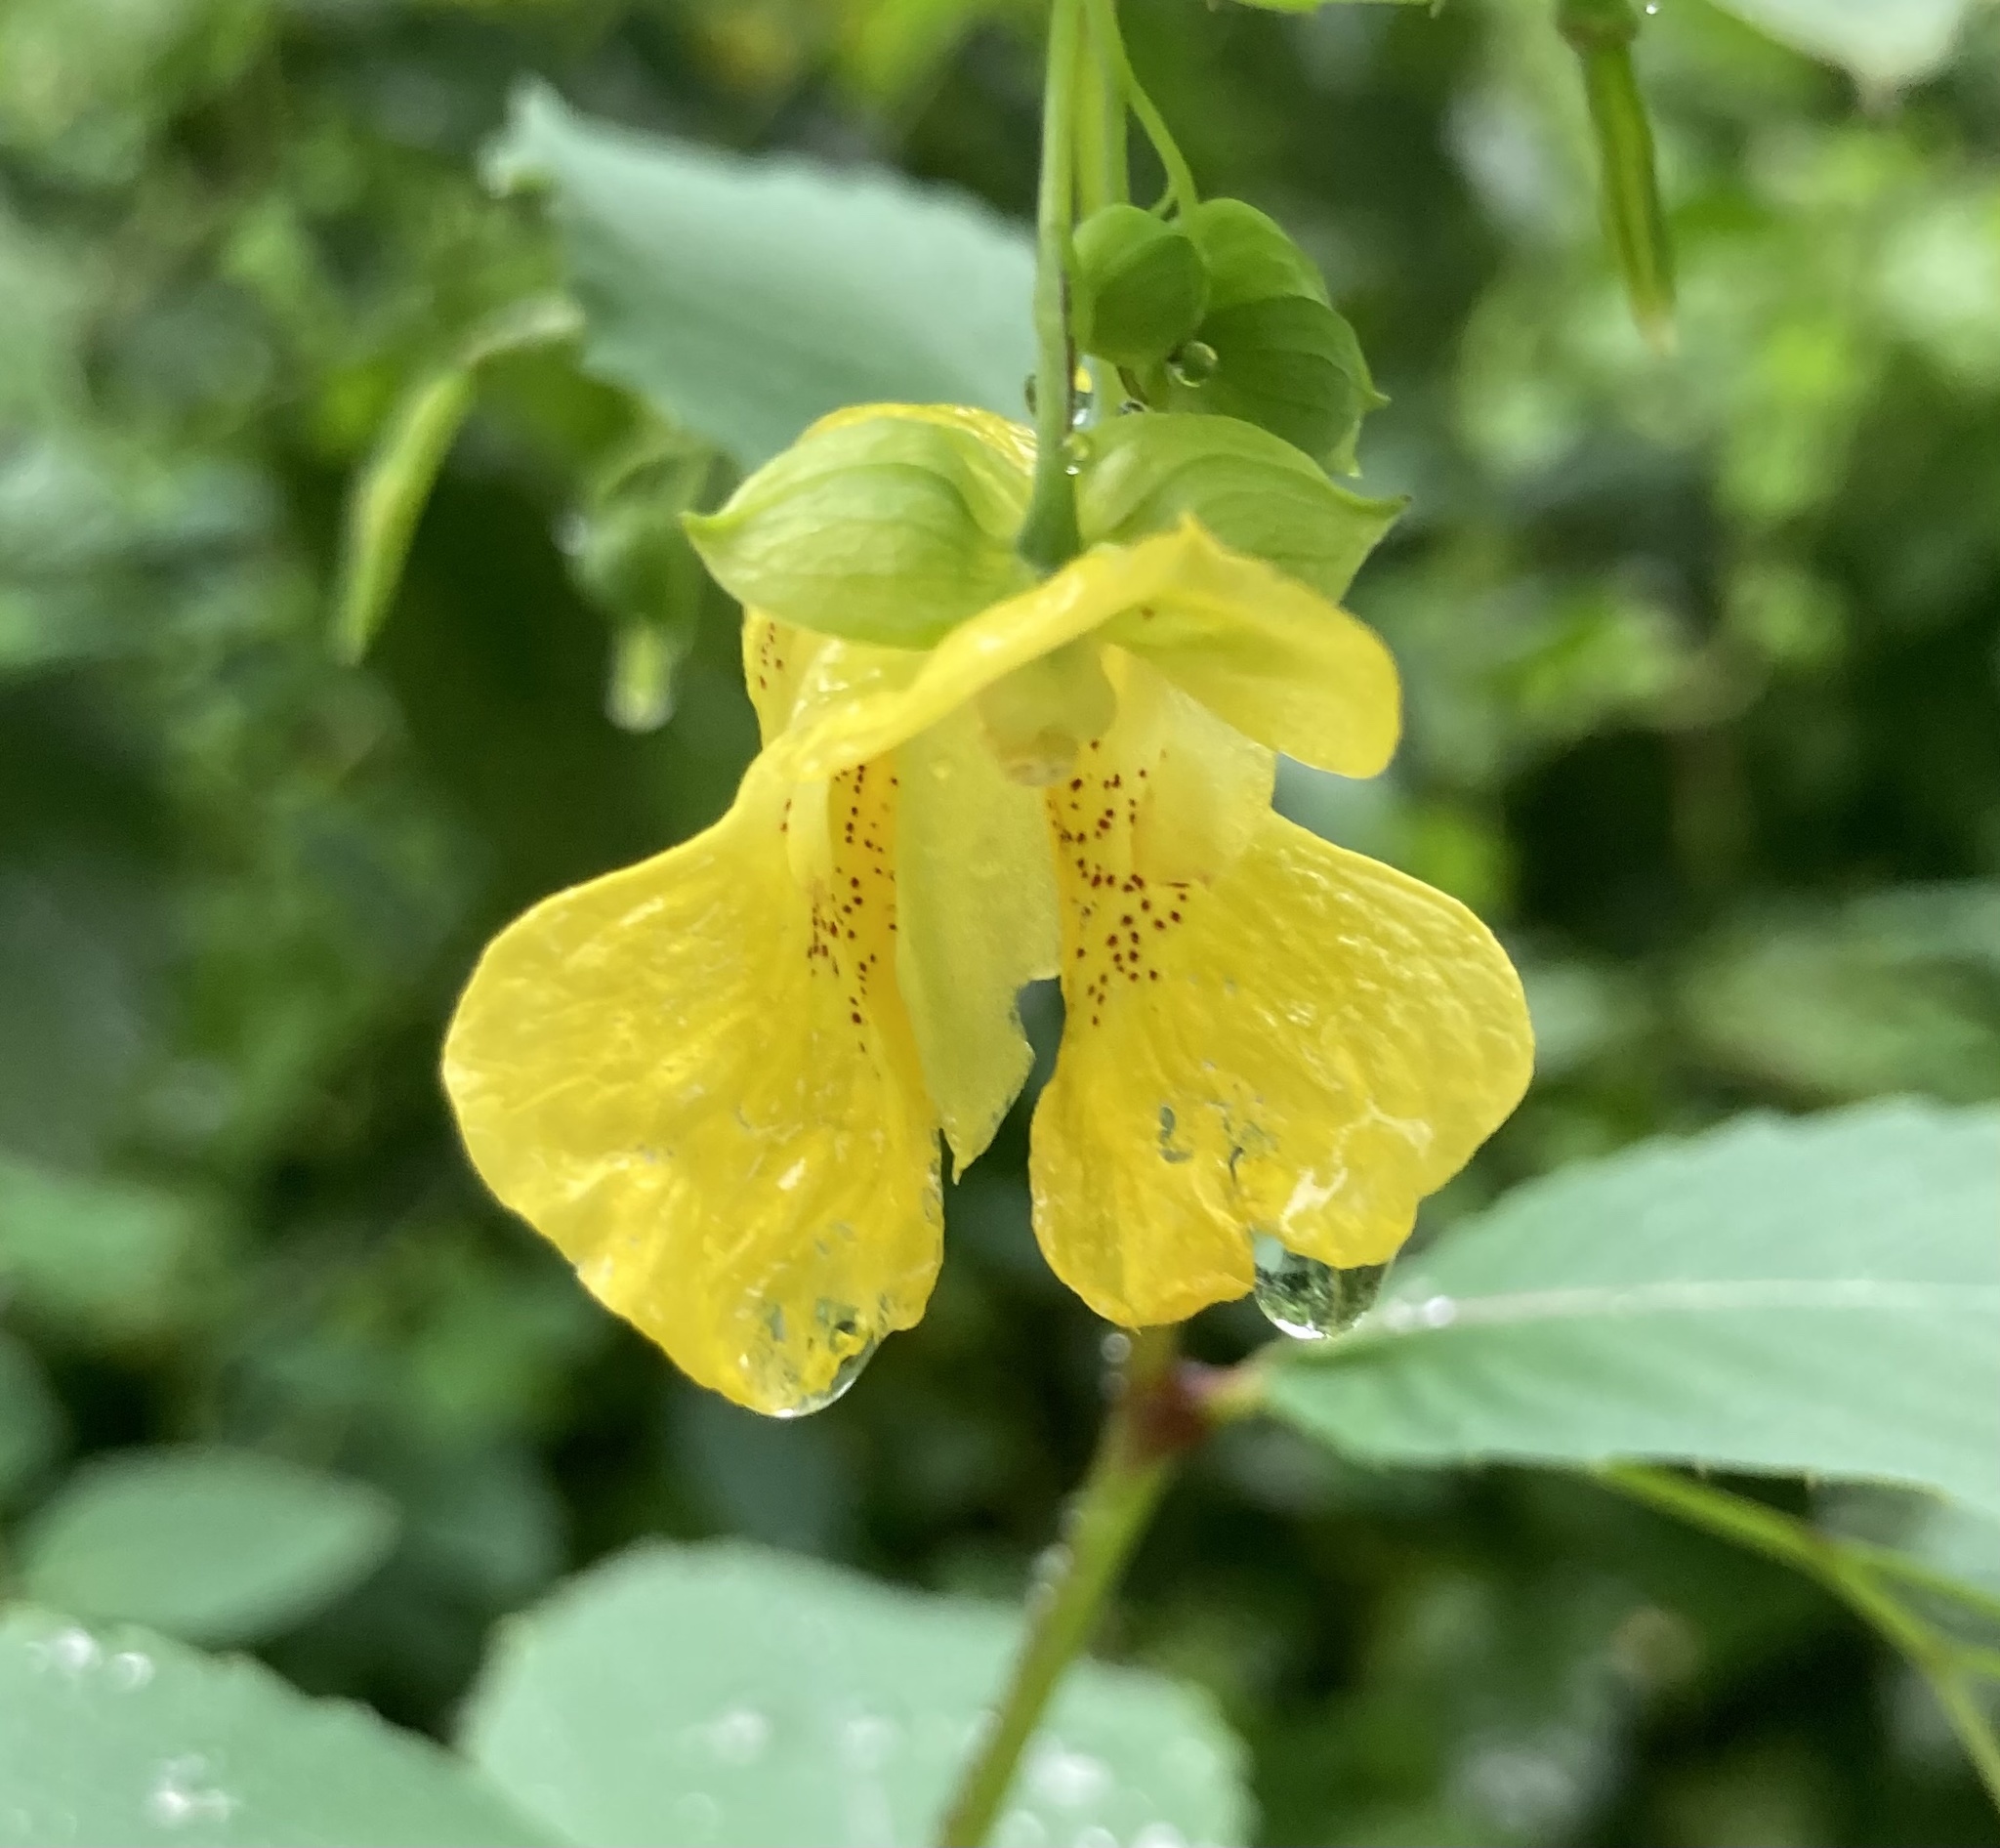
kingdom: Plantae
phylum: Tracheophyta
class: Magnoliopsida
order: Ericales
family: Balsaminaceae
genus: Impatiens
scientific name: Impatiens pallida
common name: Pale snapweed
